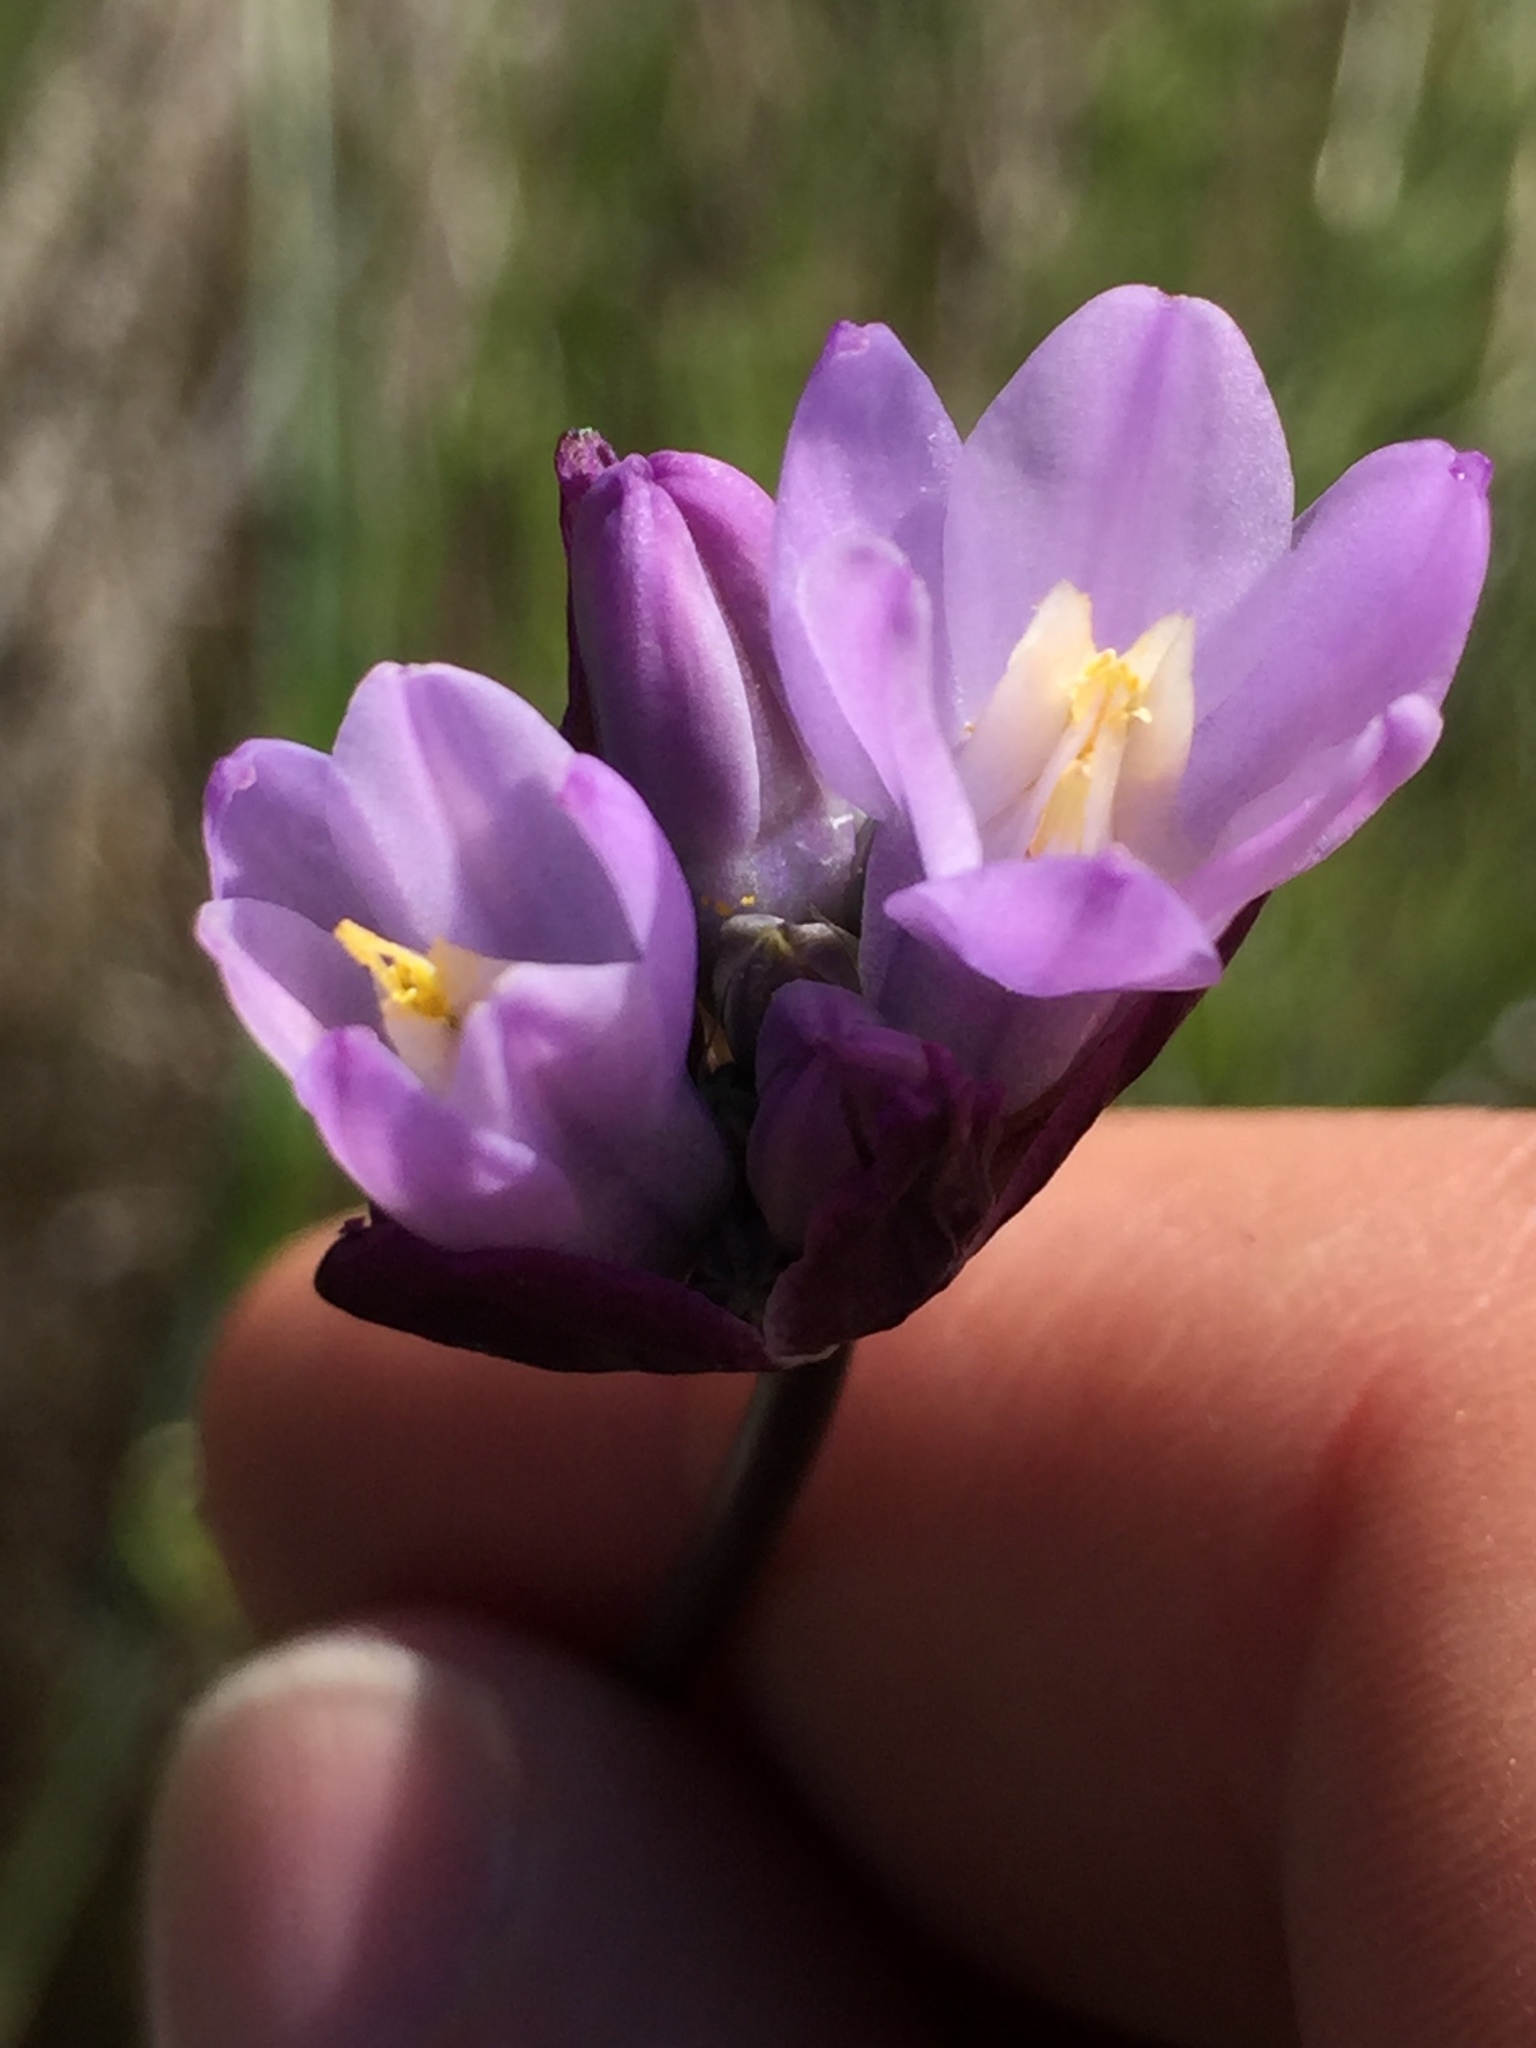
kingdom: Plantae
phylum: Tracheophyta
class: Liliopsida
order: Asparagales
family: Asparagaceae
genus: Dipterostemon
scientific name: Dipterostemon capitatus
